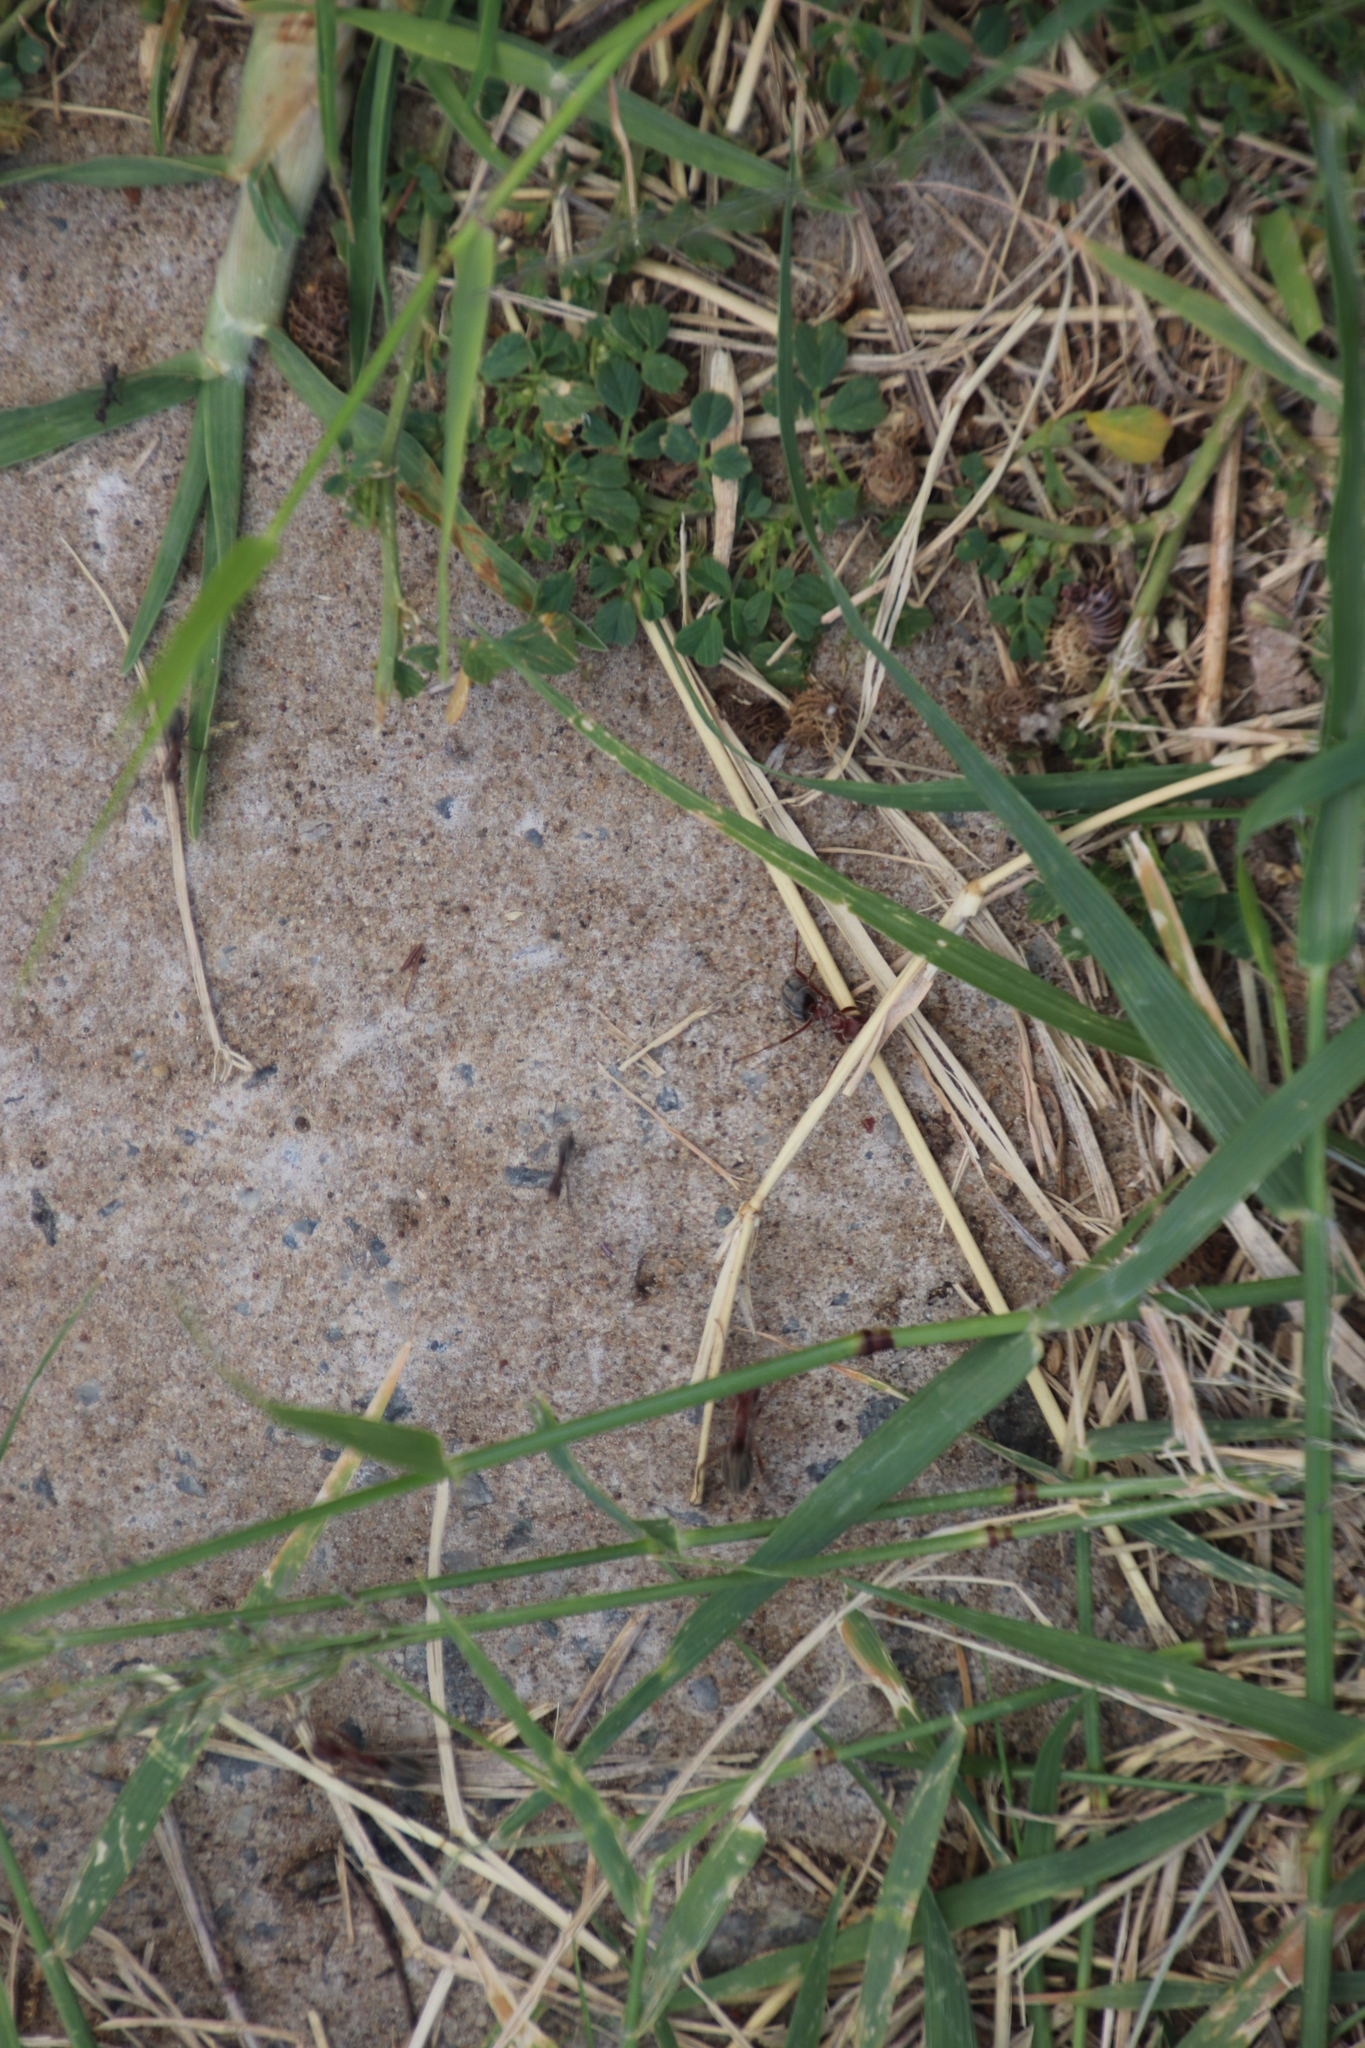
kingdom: Animalia
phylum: Arthropoda
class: Insecta
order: Hymenoptera
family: Formicidae
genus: Anoplolepis
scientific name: Anoplolepis custodiens
